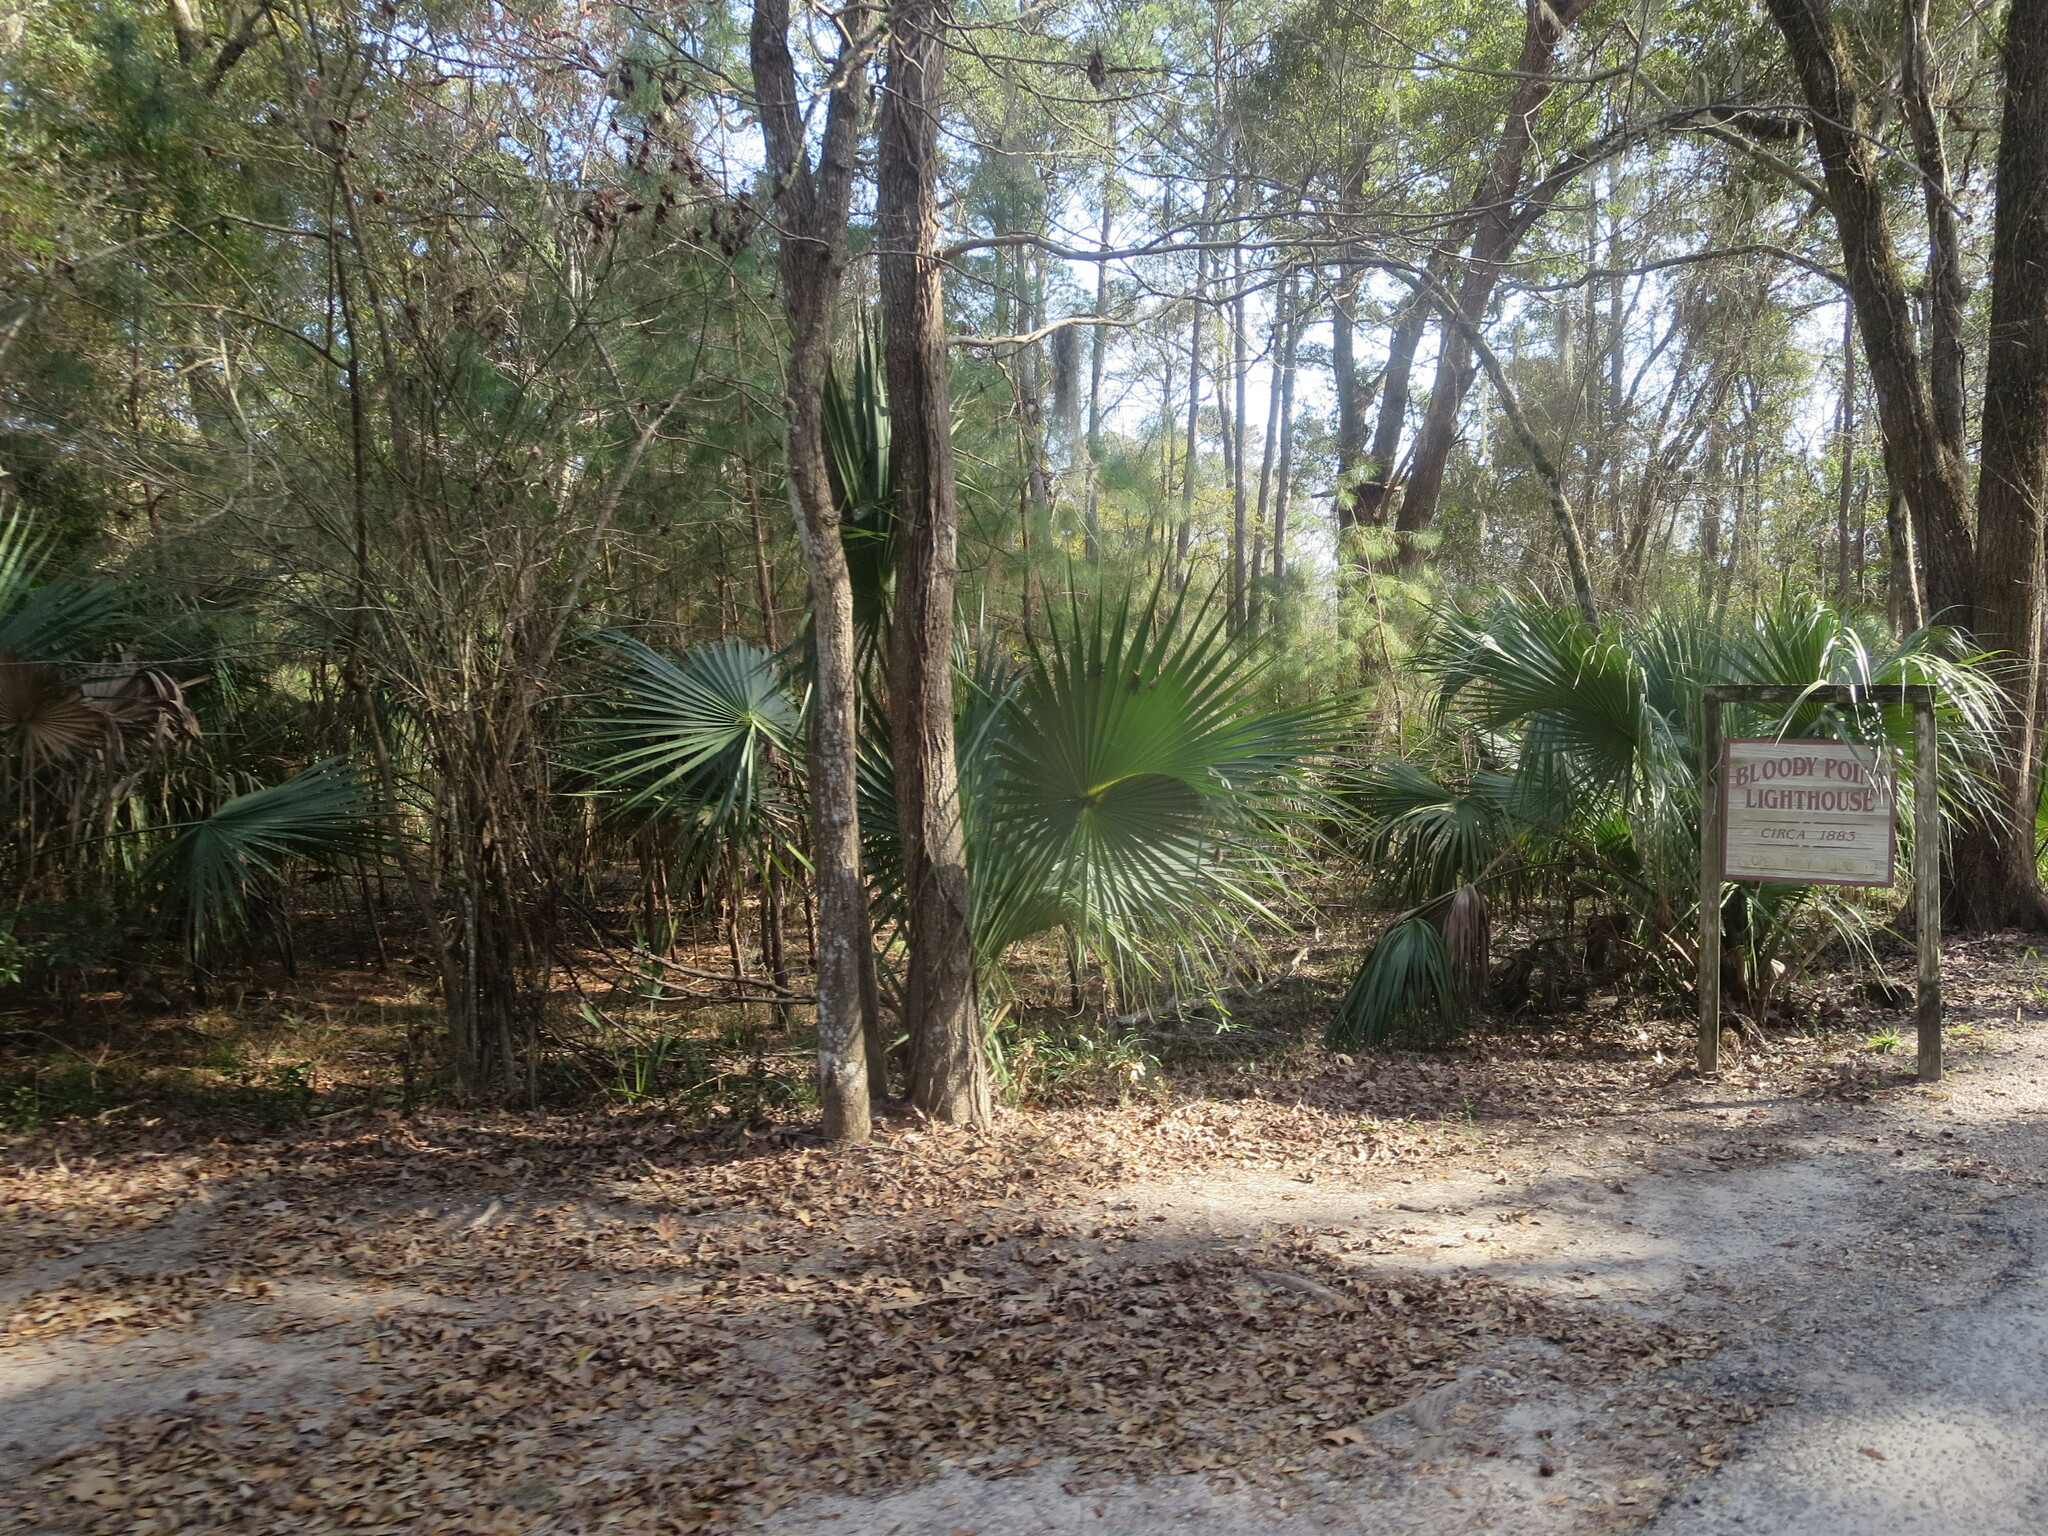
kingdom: Plantae
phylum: Tracheophyta
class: Liliopsida
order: Arecales
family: Arecaceae
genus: Sabal
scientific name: Sabal palmetto
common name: Blue palmetto
